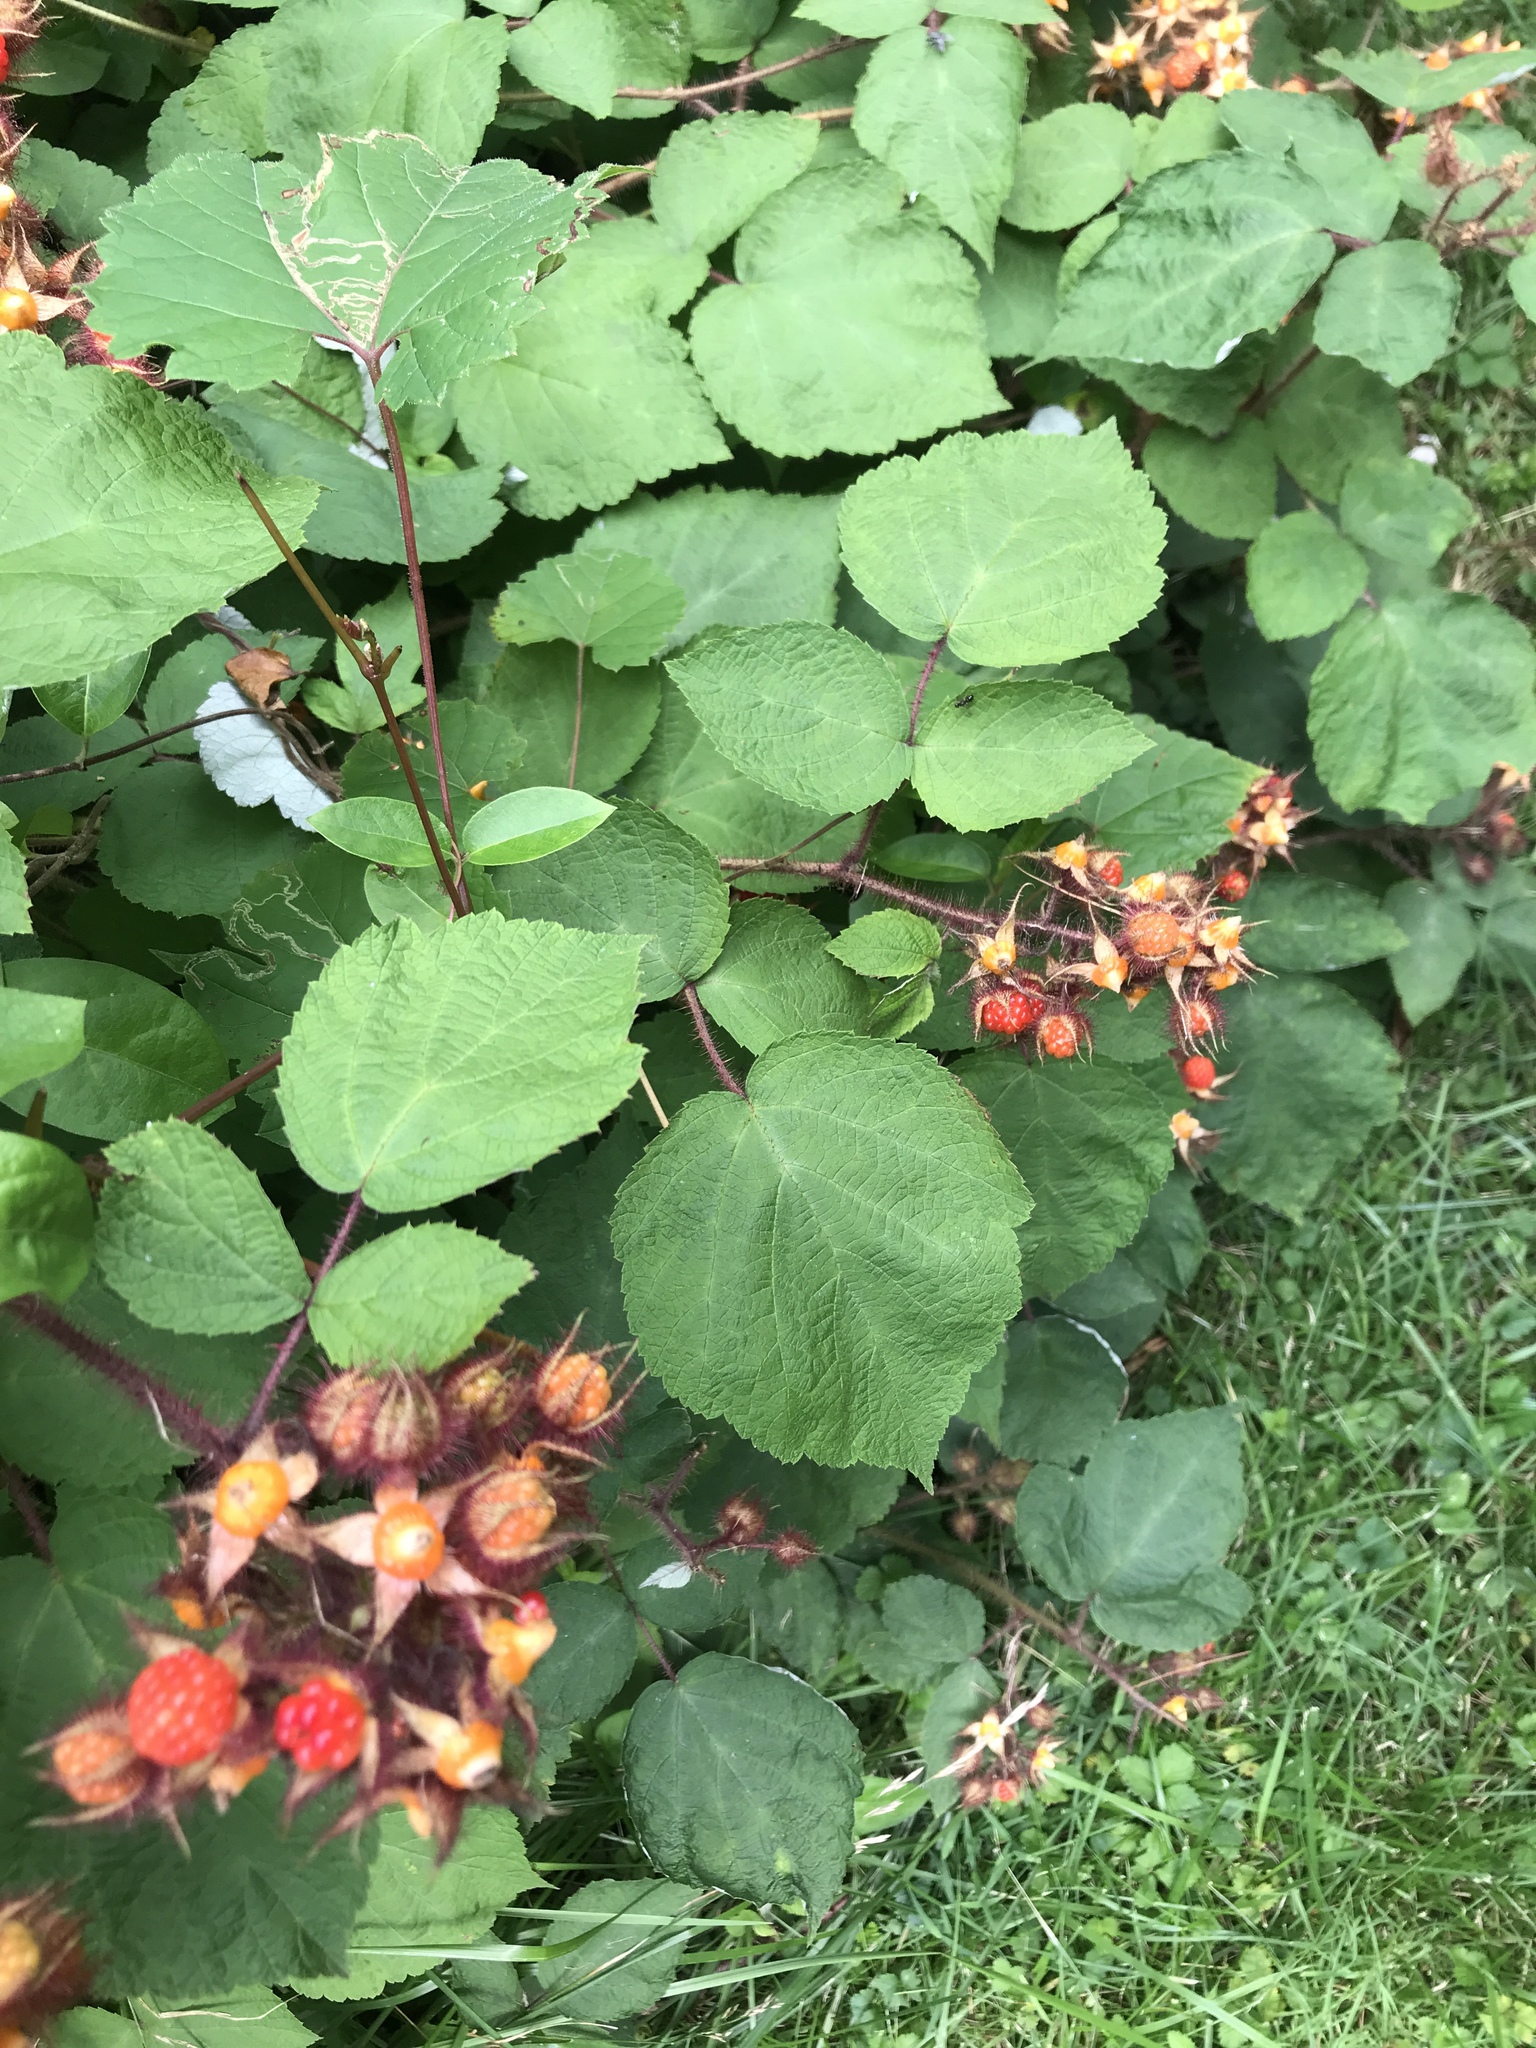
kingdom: Plantae
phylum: Tracheophyta
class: Magnoliopsida
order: Rosales
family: Rosaceae
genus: Rubus
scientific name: Rubus phoenicolasius
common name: Japanese wineberry
